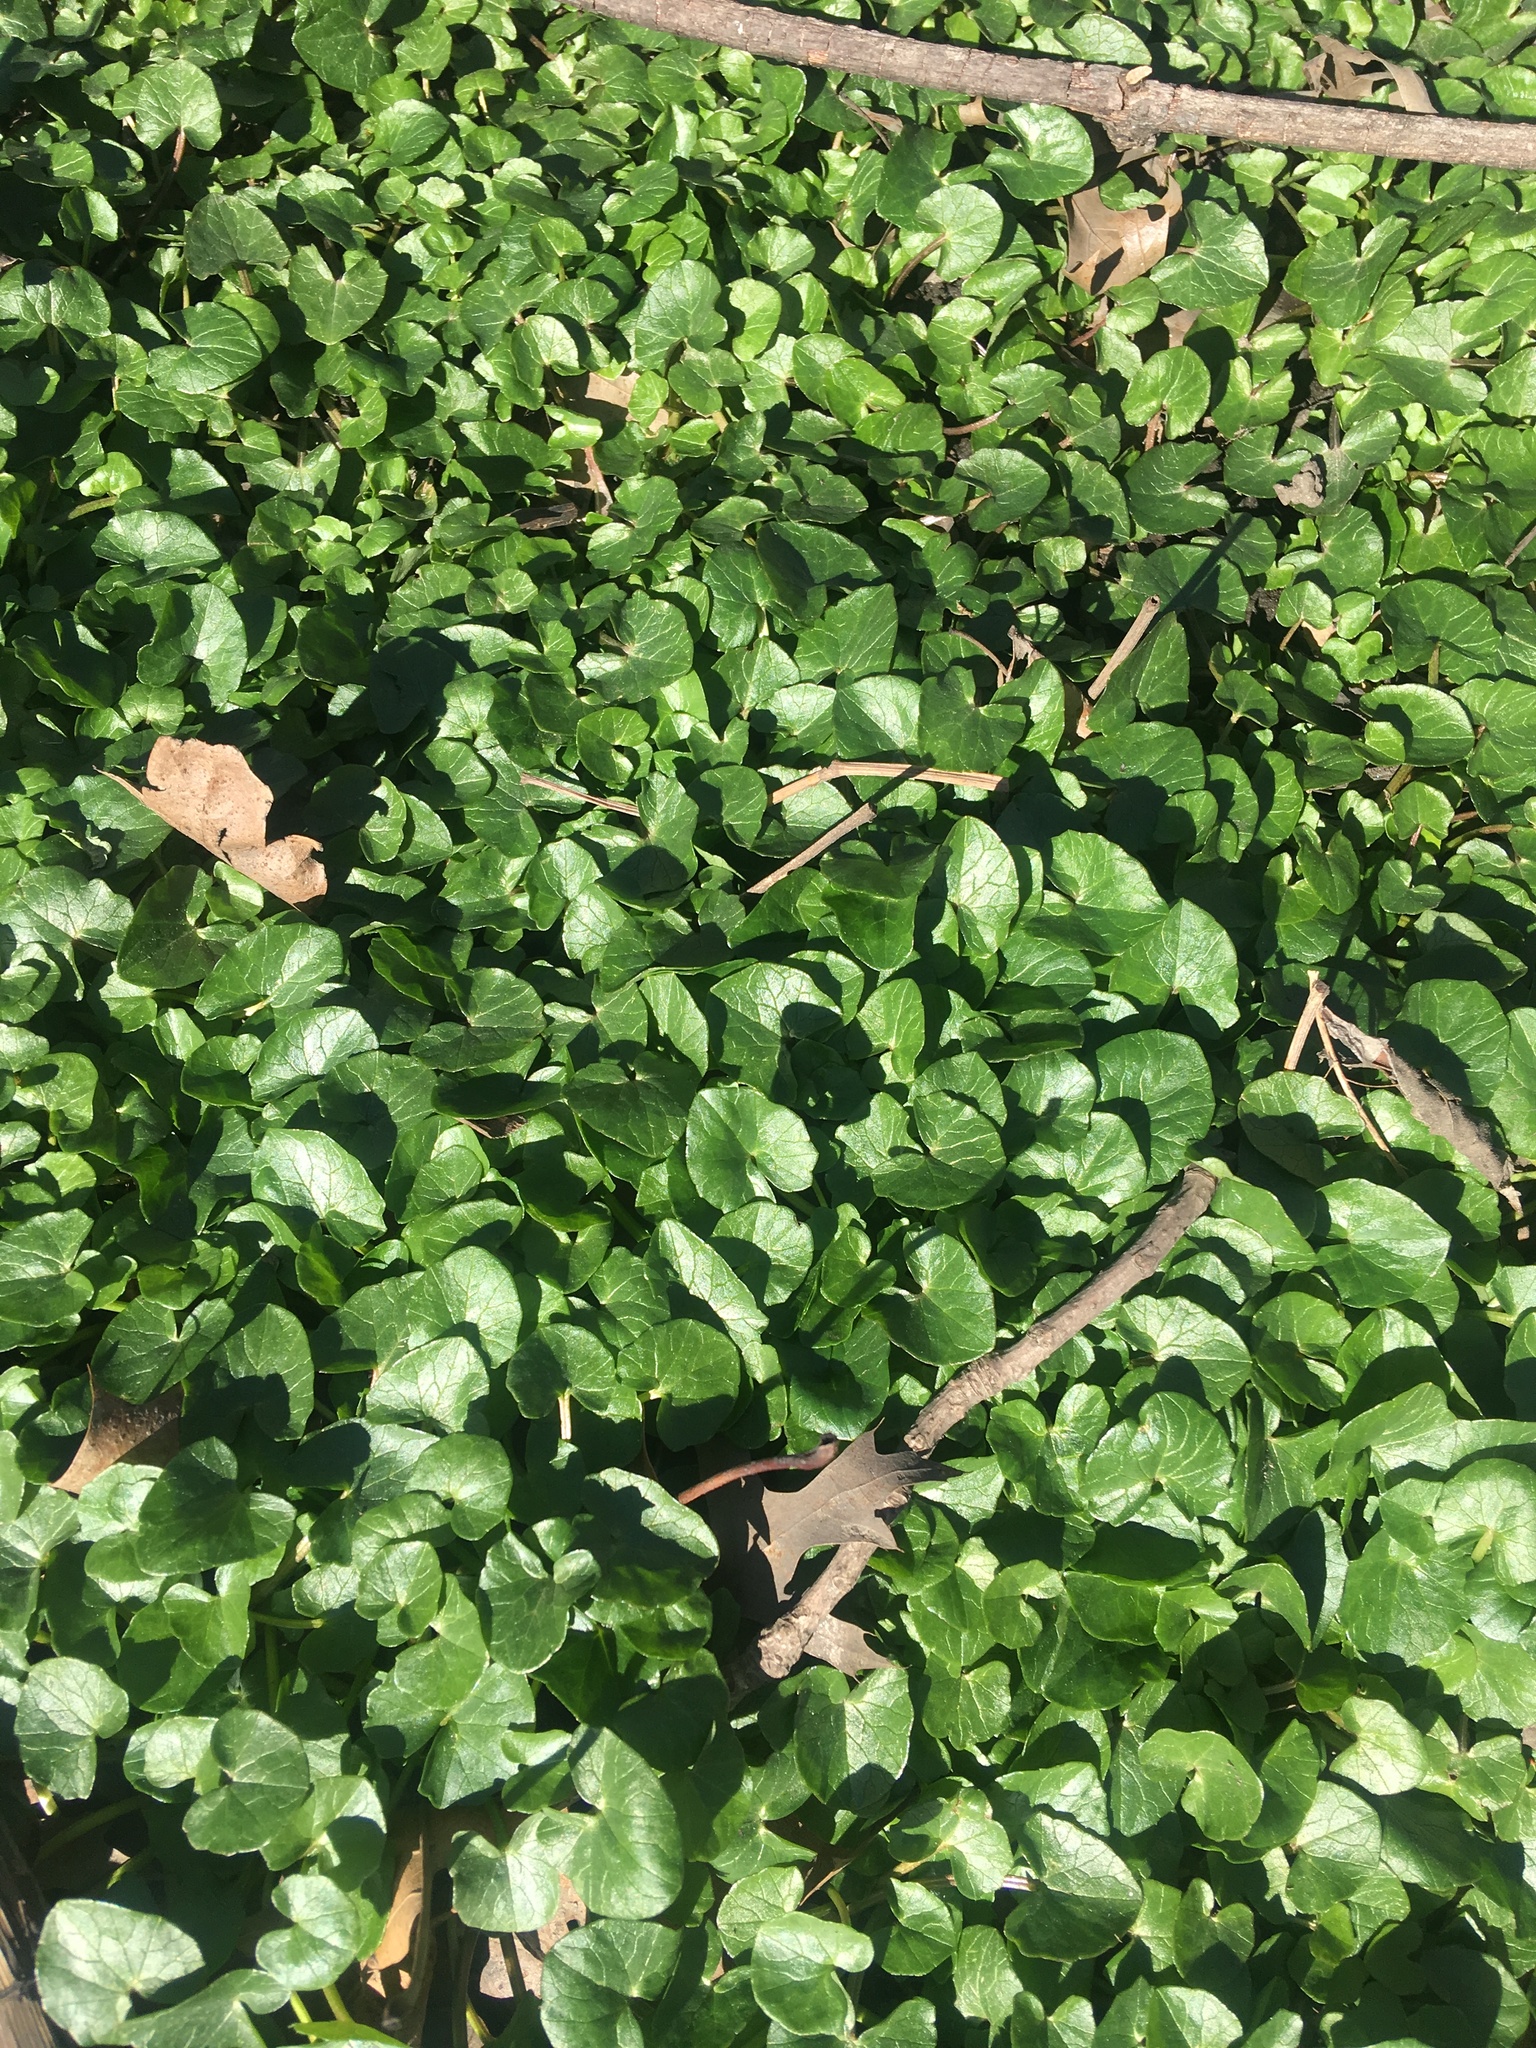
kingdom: Plantae
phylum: Tracheophyta
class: Magnoliopsida
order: Ranunculales
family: Ranunculaceae
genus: Ficaria
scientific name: Ficaria verna
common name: Lesser celandine
